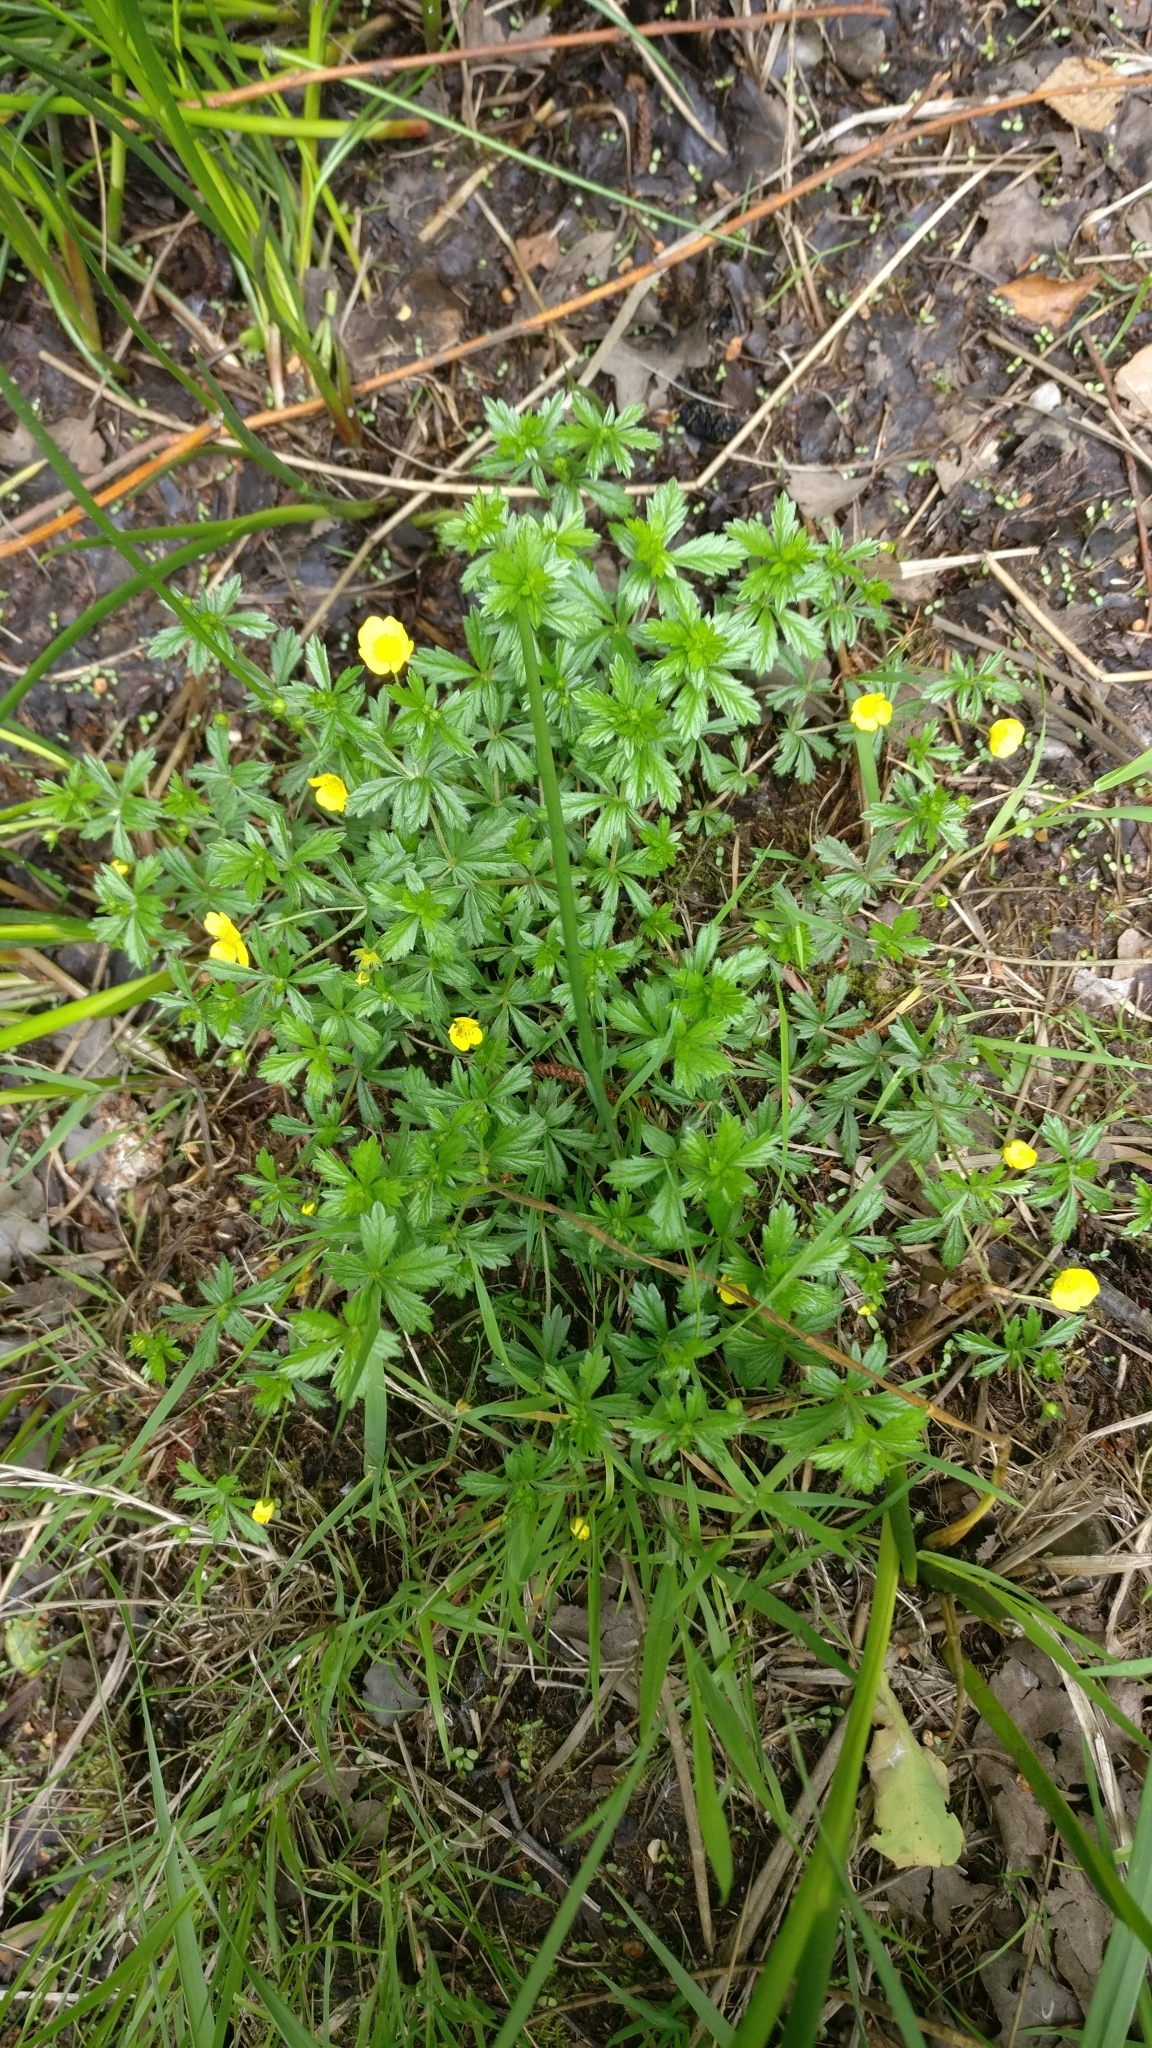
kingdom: Plantae
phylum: Tracheophyta
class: Magnoliopsida
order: Rosales
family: Rosaceae
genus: Potentilla
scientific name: Potentilla erecta
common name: Tormentil
